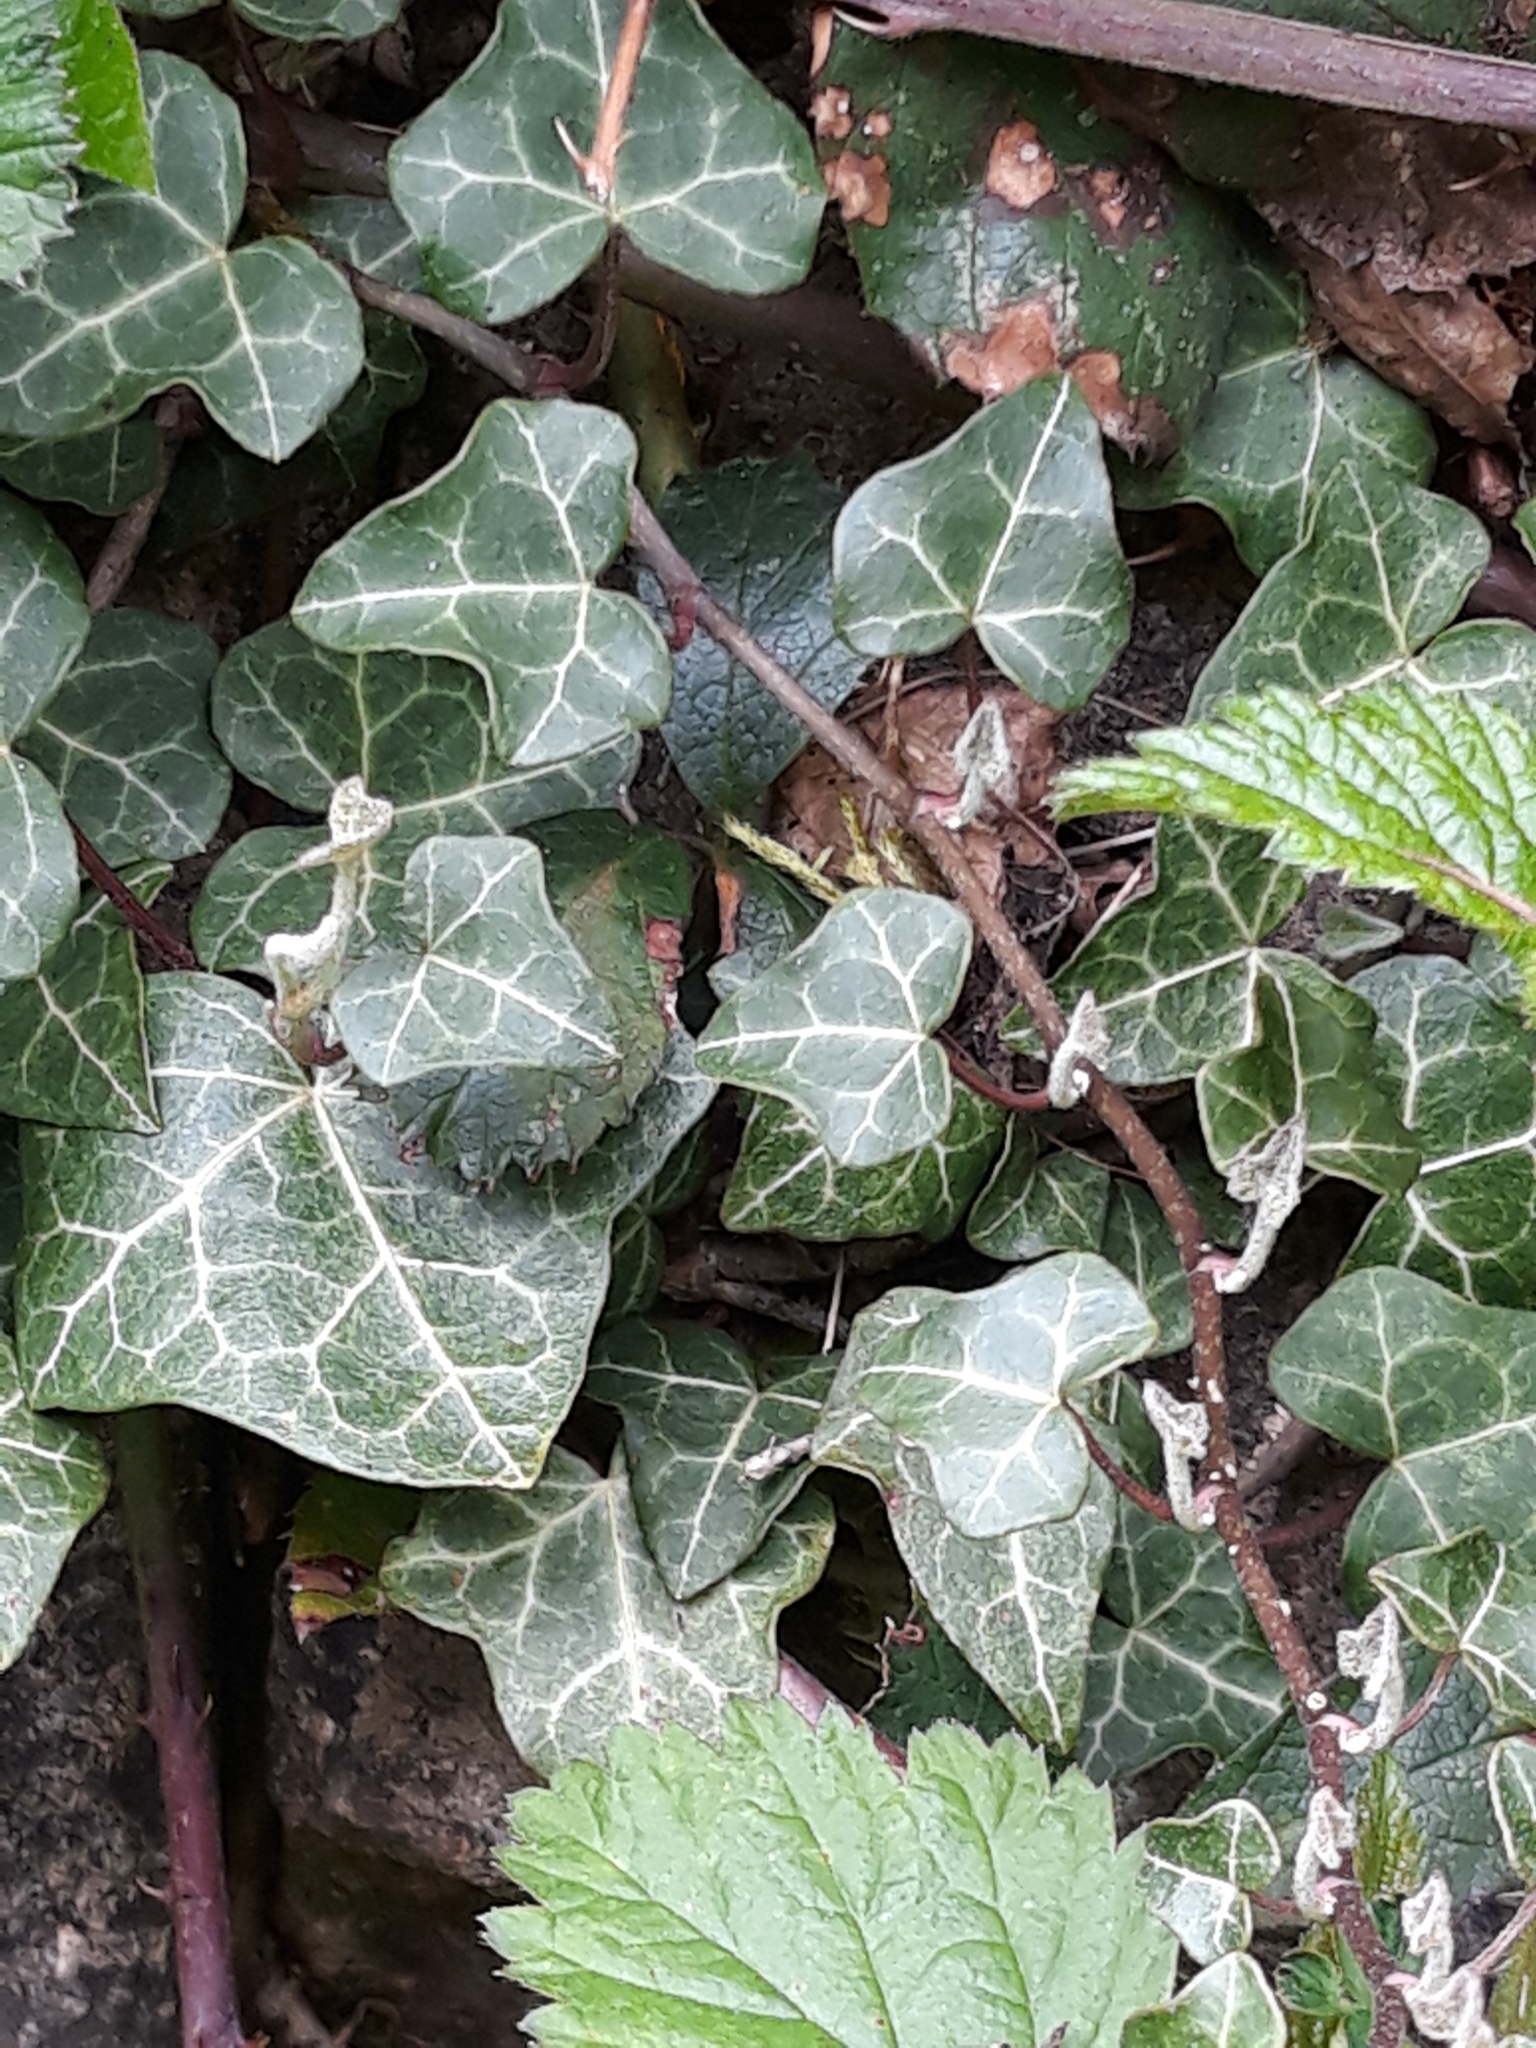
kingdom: Plantae
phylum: Tracheophyta
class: Magnoliopsida
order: Apiales
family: Araliaceae
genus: Hedera
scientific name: Hedera helix
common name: Ivy
